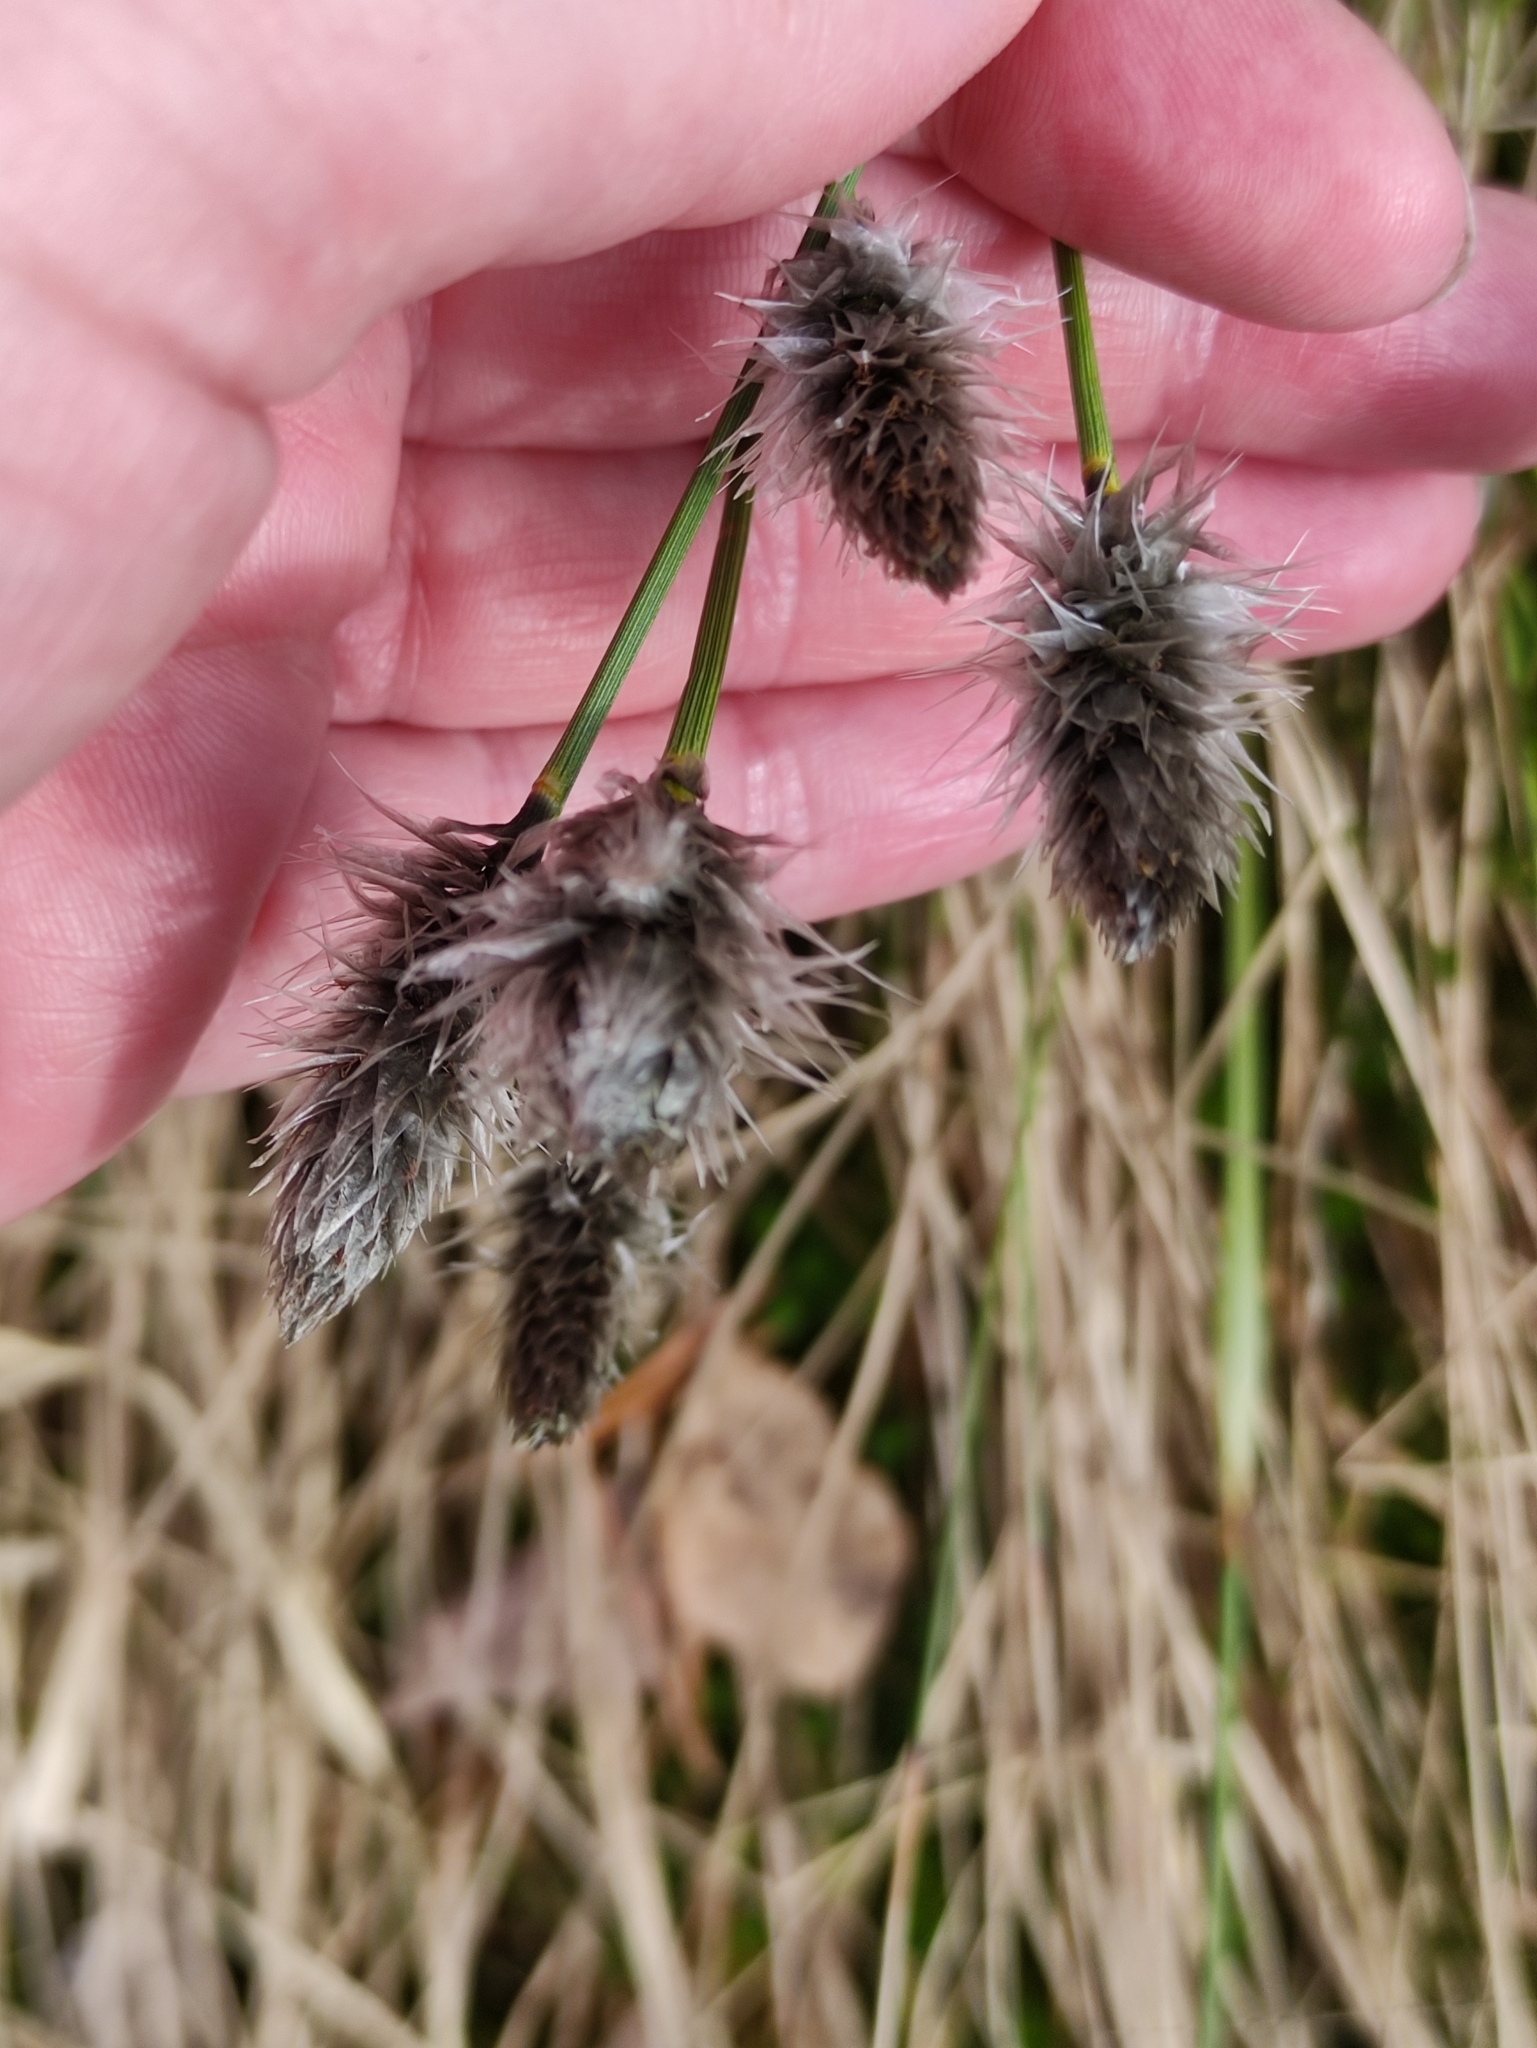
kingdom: Plantae
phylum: Tracheophyta
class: Liliopsida
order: Poales
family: Cyperaceae
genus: Eriophorum
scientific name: Eriophorum vaginatum
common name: Hare's-tail cottongrass
